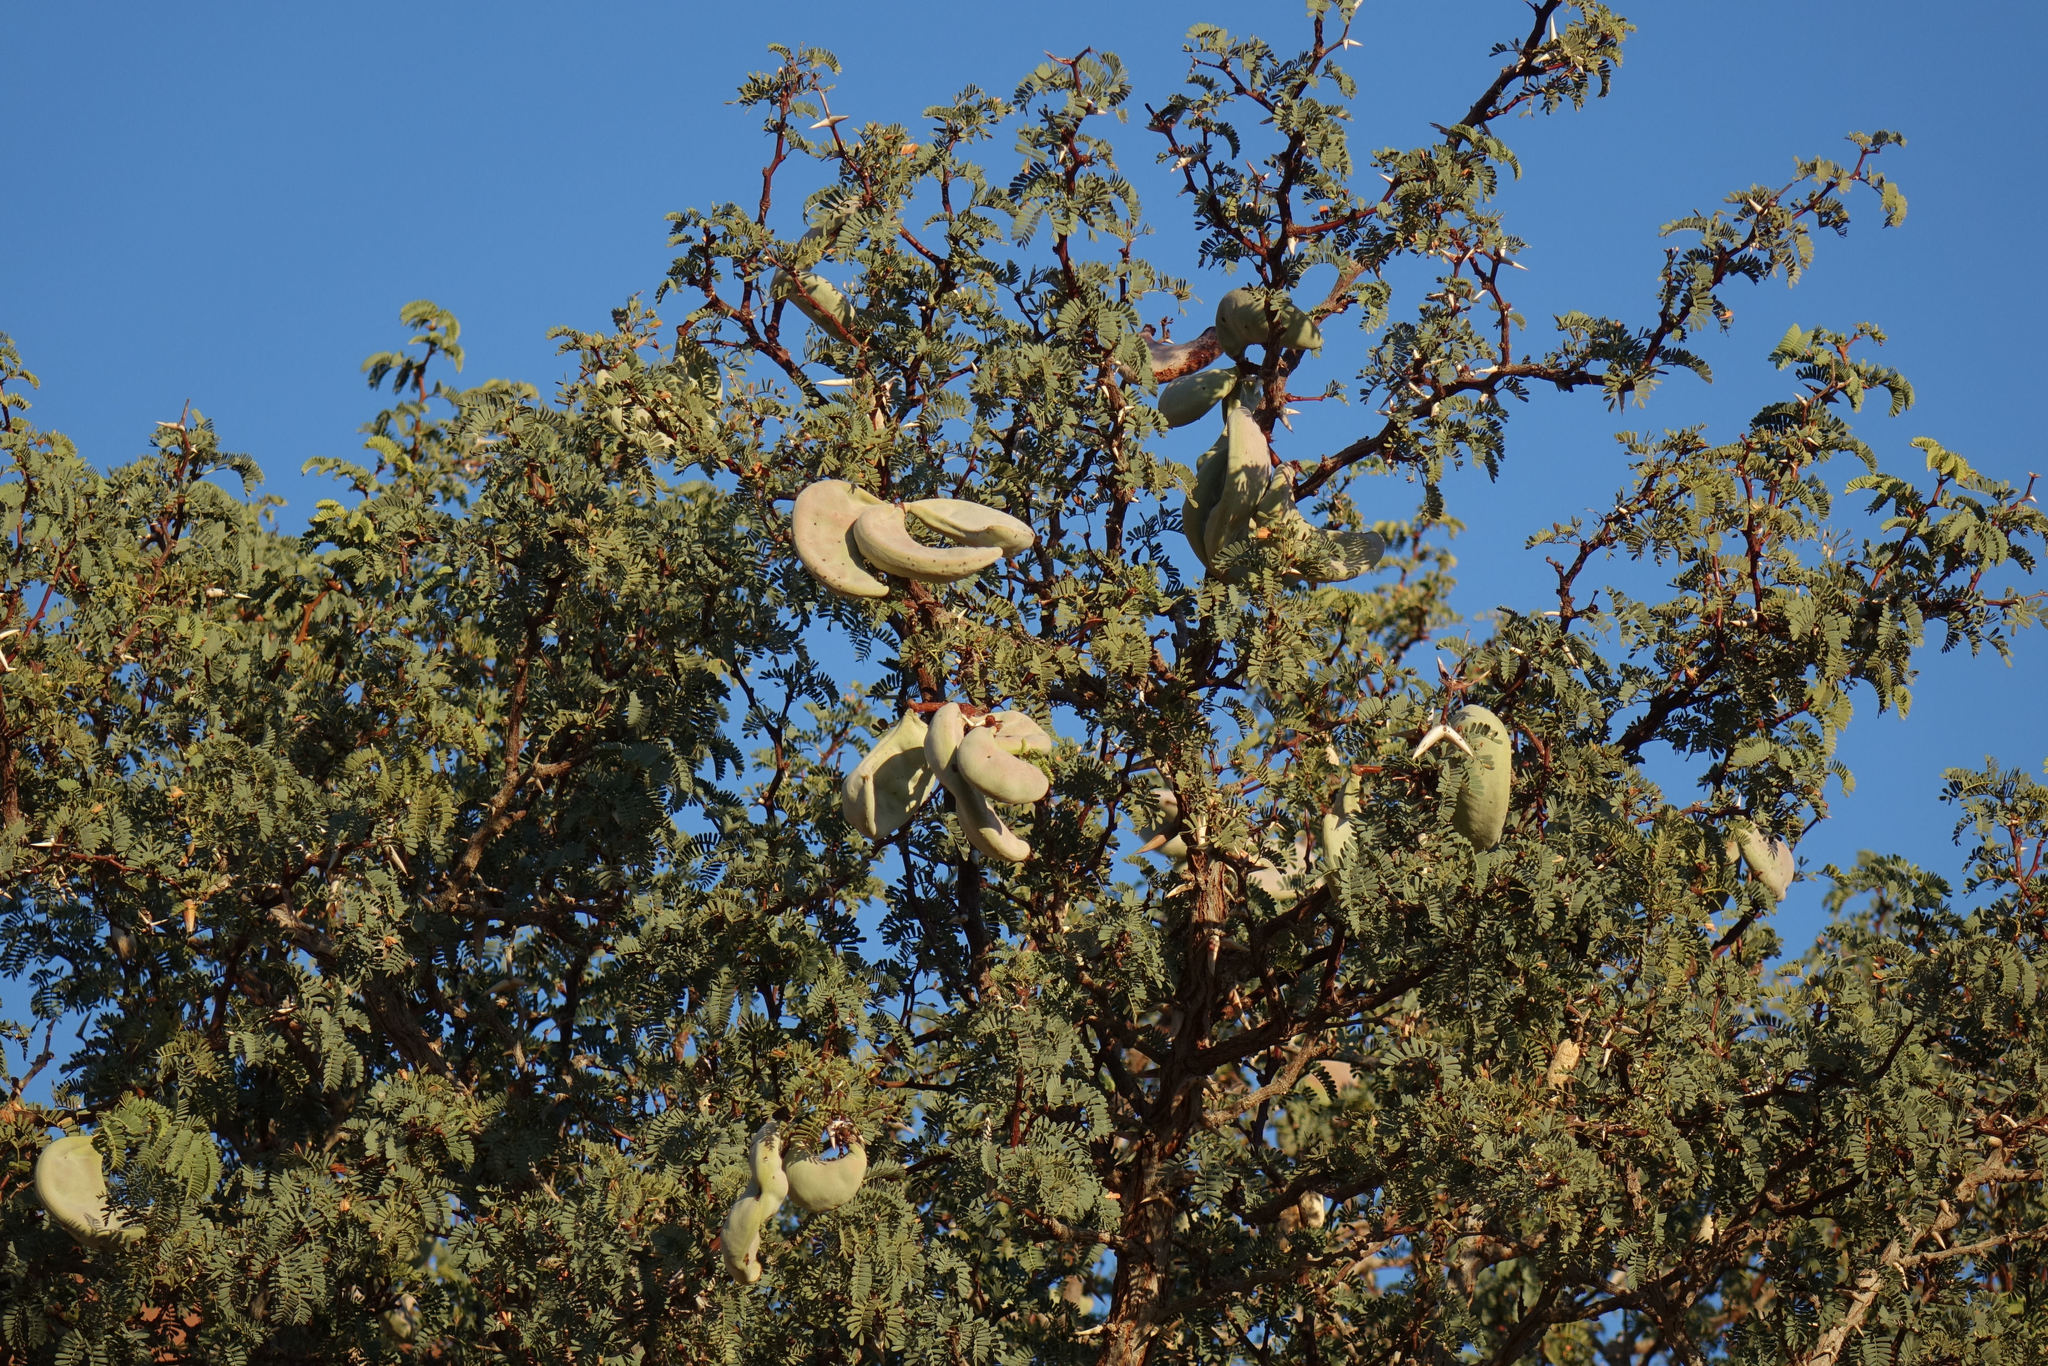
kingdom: Plantae
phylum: Tracheophyta
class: Magnoliopsida
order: Fabales
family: Fabaceae
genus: Vachellia
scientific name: Vachellia erioloba
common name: Camel thorn
